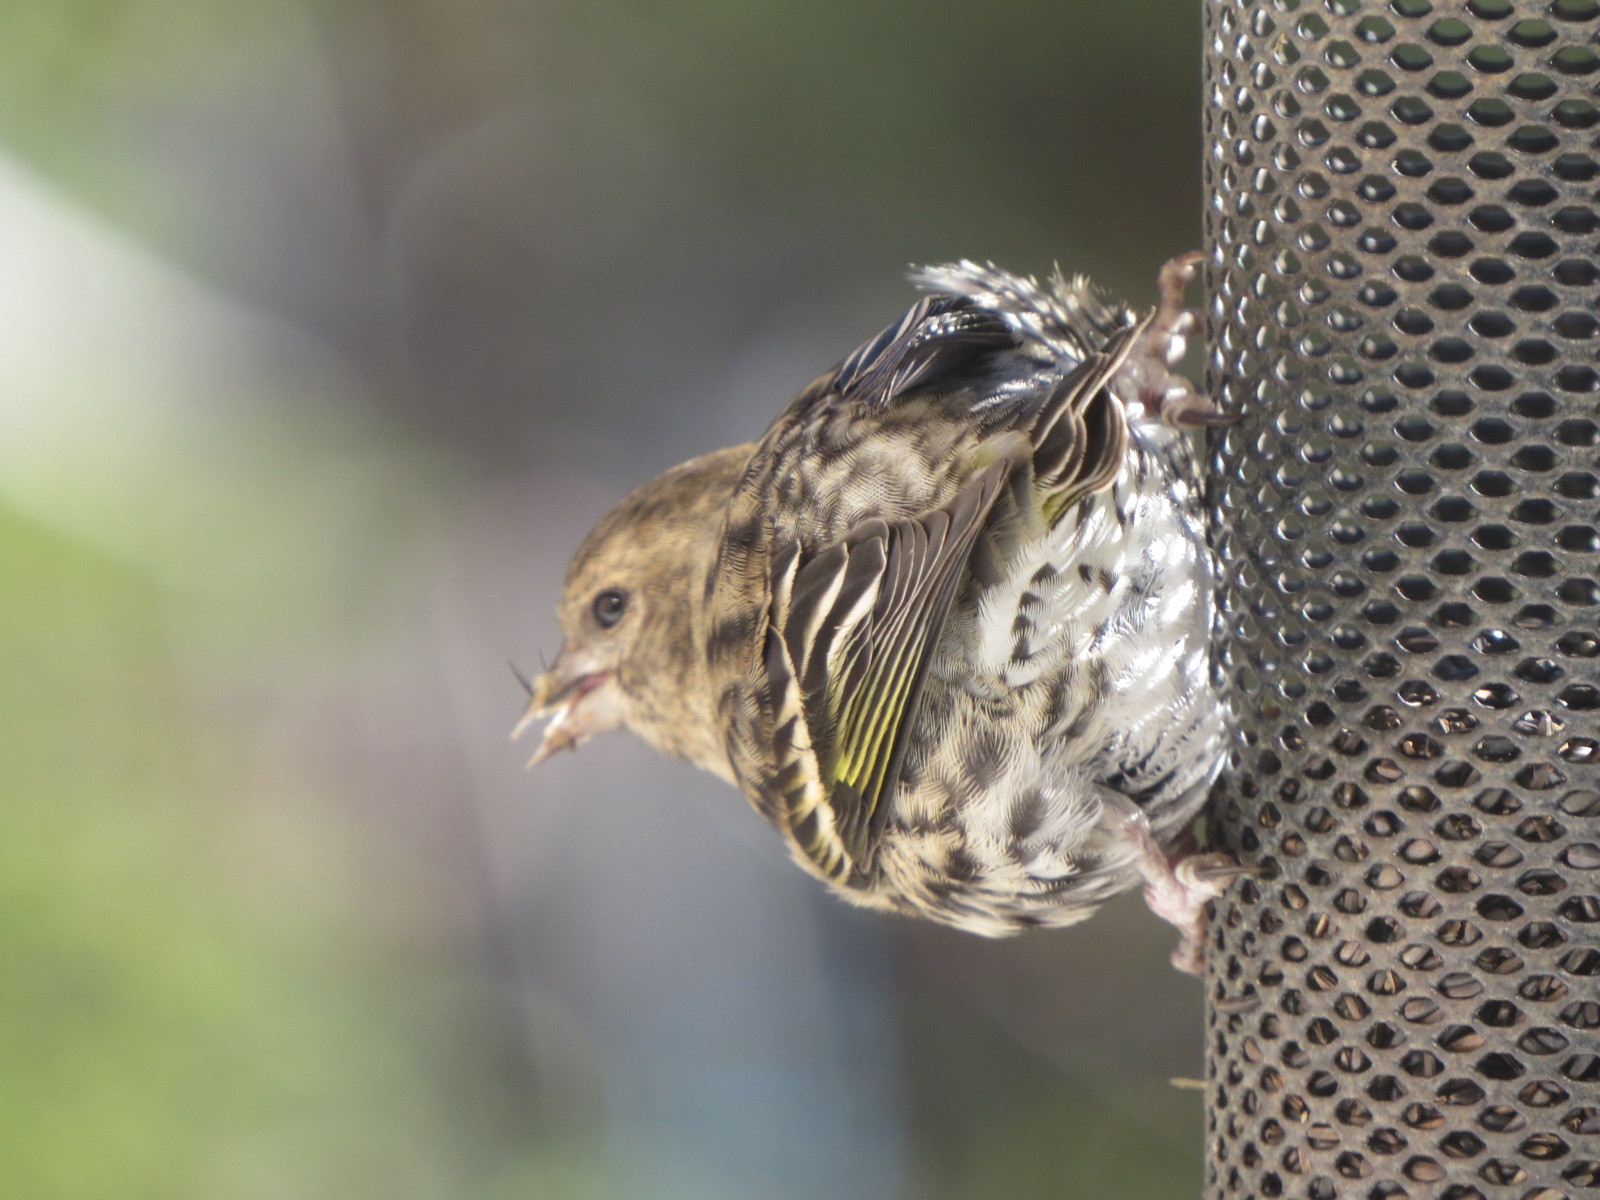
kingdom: Animalia
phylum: Chordata
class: Aves
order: Passeriformes
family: Fringillidae
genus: Spinus
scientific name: Spinus pinus
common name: Pine siskin
